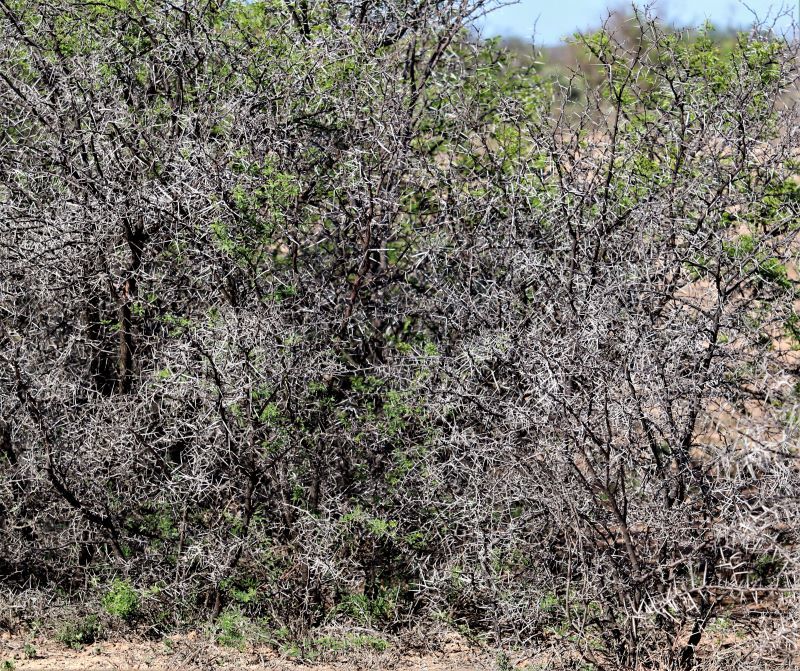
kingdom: Plantae
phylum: Tracheophyta
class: Magnoliopsida
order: Fabales
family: Fabaceae
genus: Vachellia
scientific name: Vachellia karroo
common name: Sweet thorn
